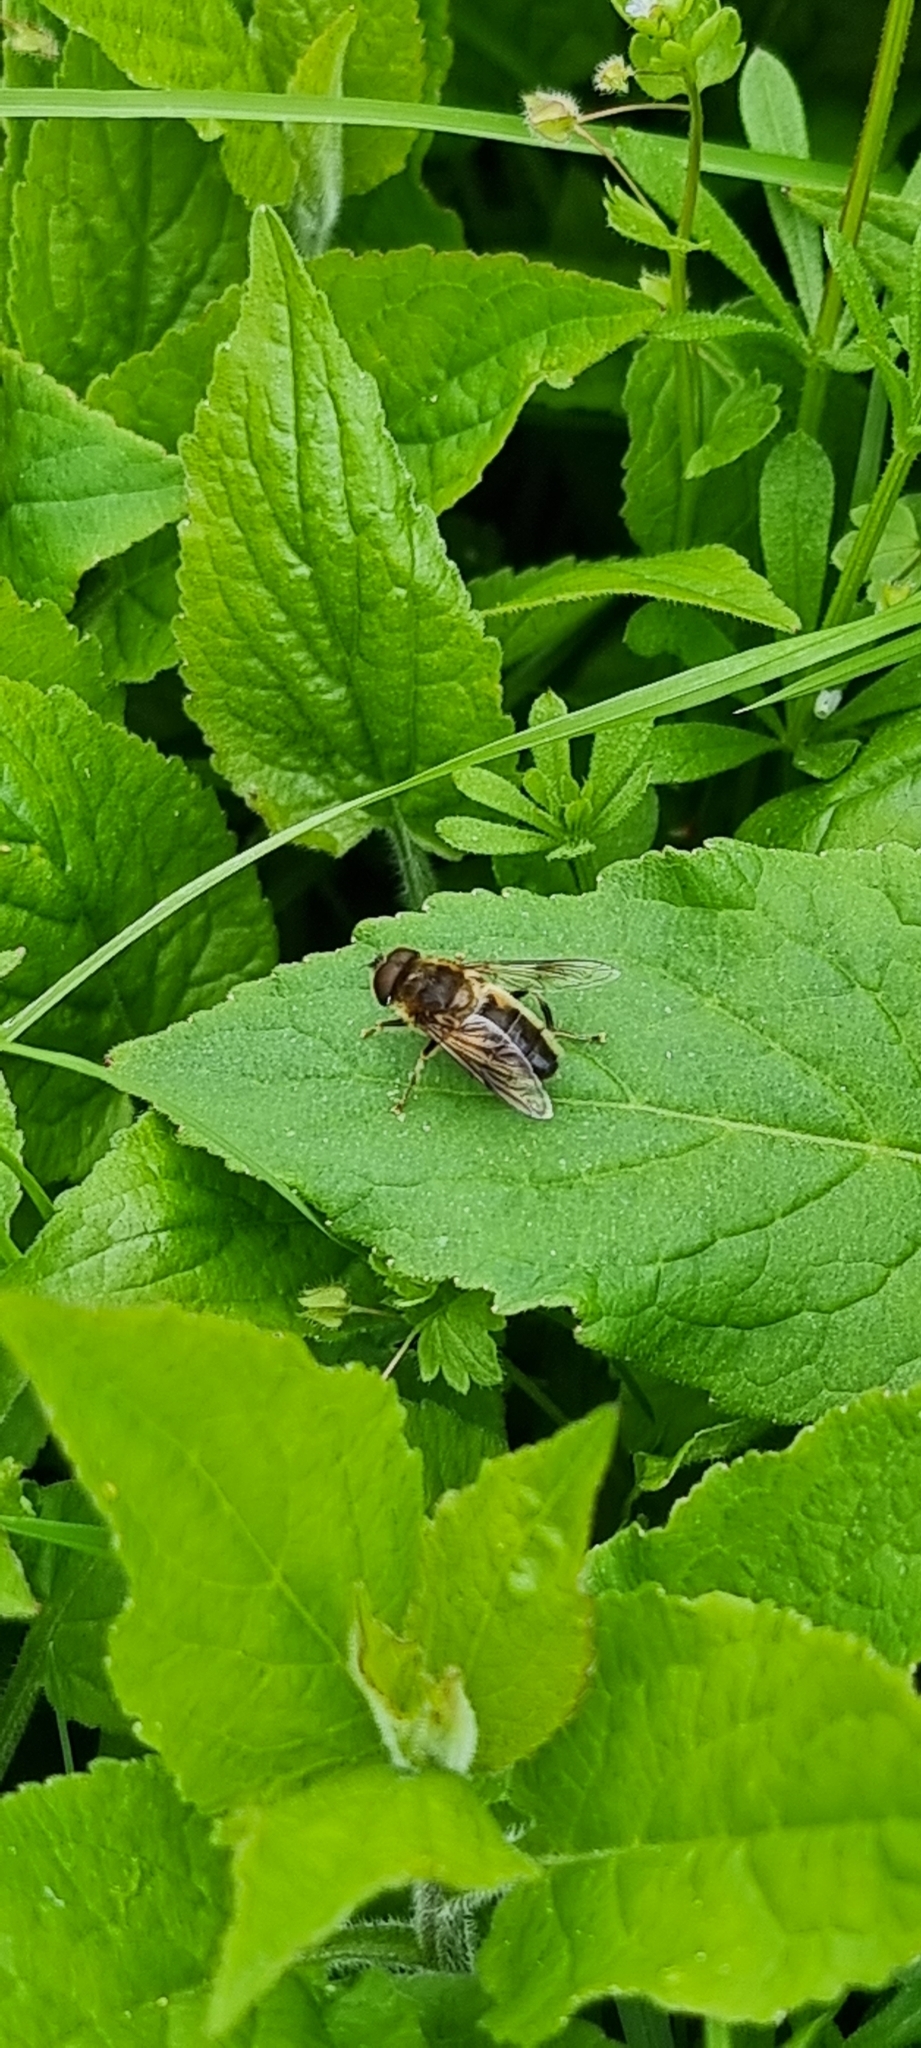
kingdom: Animalia
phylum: Arthropoda
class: Insecta
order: Diptera
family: Syrphidae
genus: Eristalis
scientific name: Eristalis pertinax
